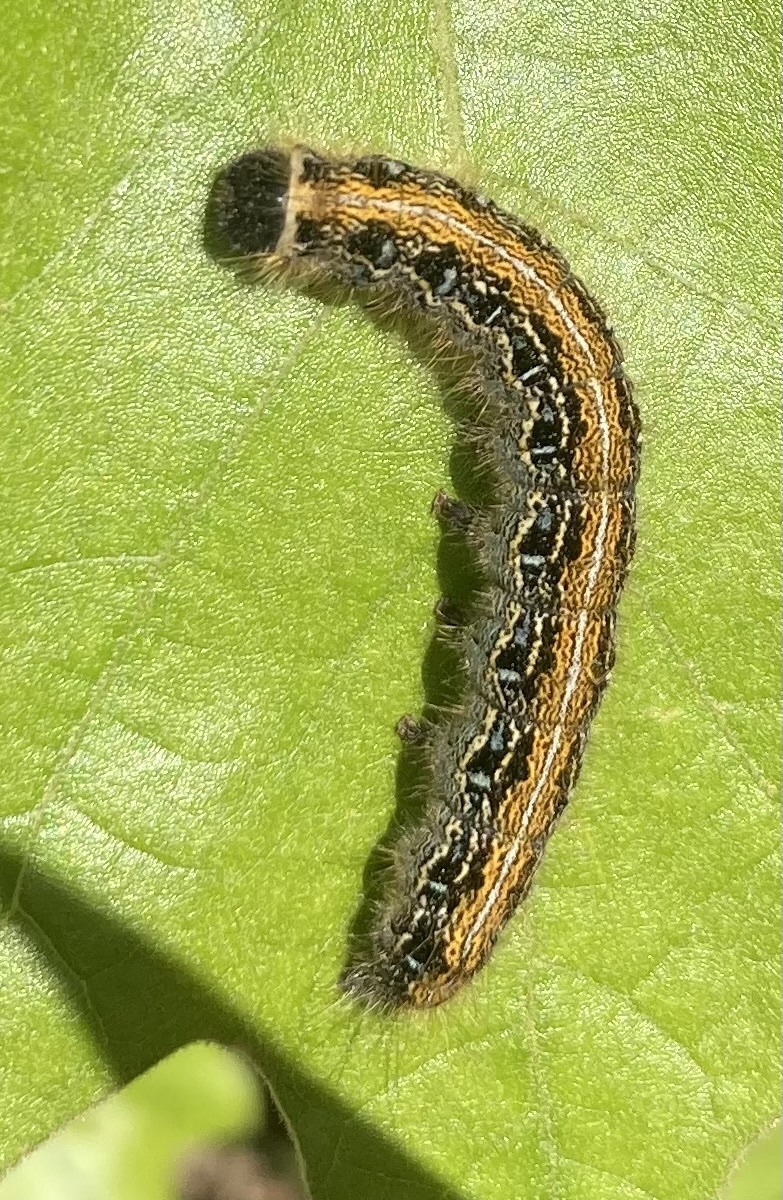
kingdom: Animalia
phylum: Arthropoda
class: Insecta
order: Lepidoptera
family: Lasiocampidae
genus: Malacosoma
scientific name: Malacosoma americana
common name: Eastern tent caterpillar moth
